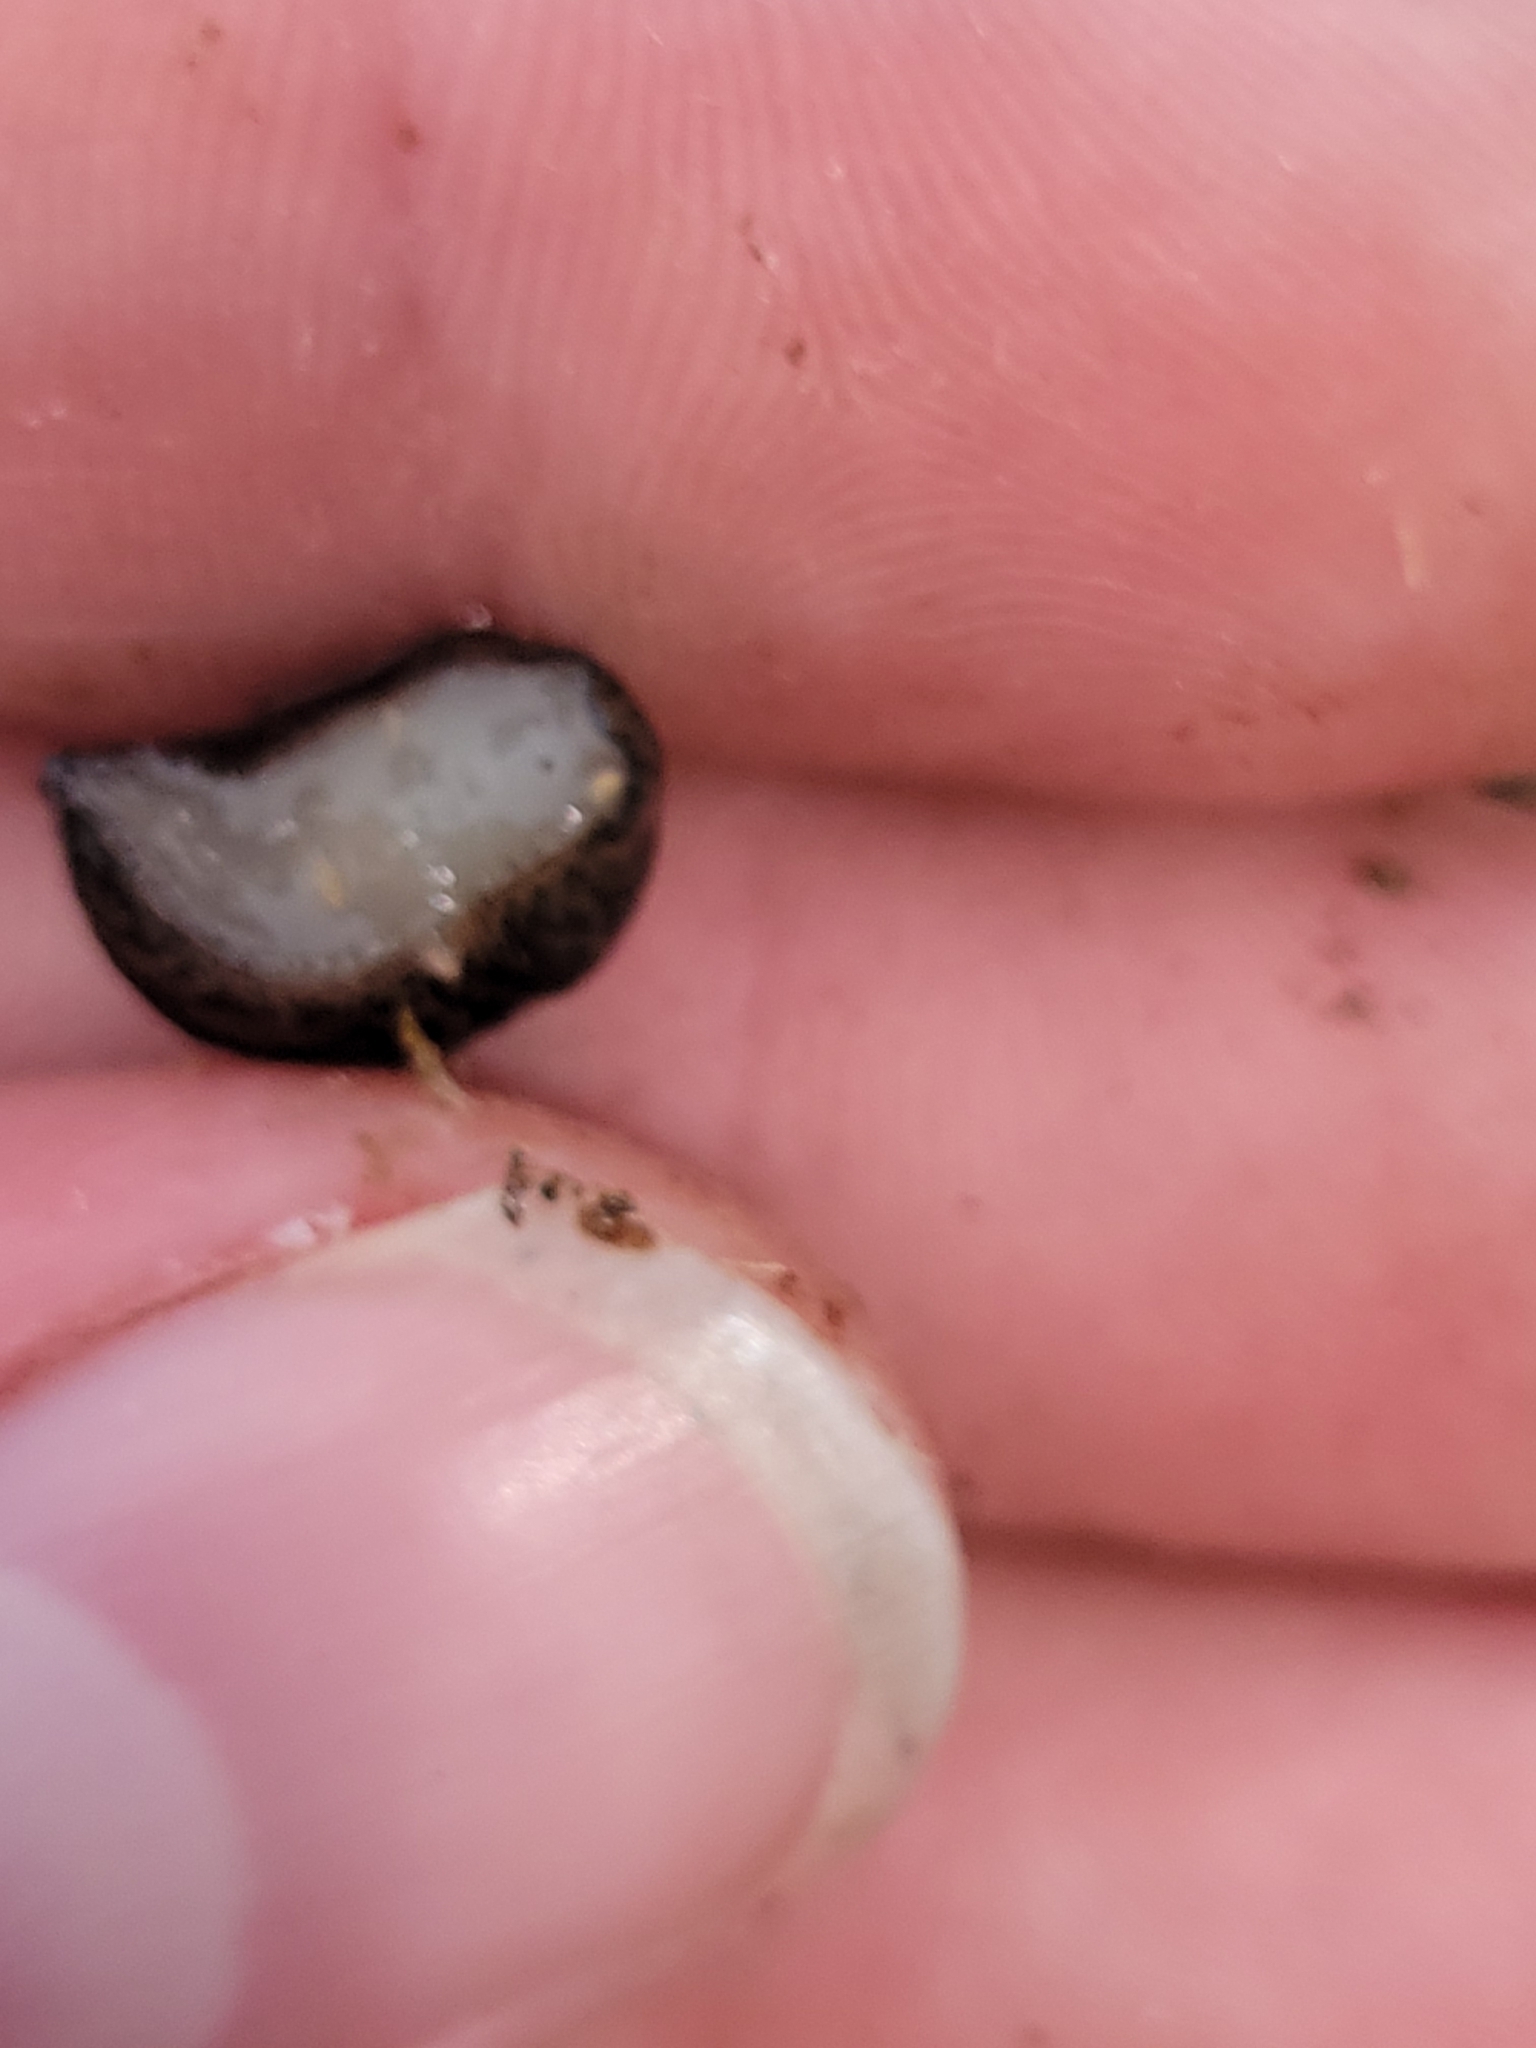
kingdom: Animalia
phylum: Mollusca
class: Gastropoda
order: Stylommatophora
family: Limacidae
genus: Limax
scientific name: Limax maximus
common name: Great grey slug
